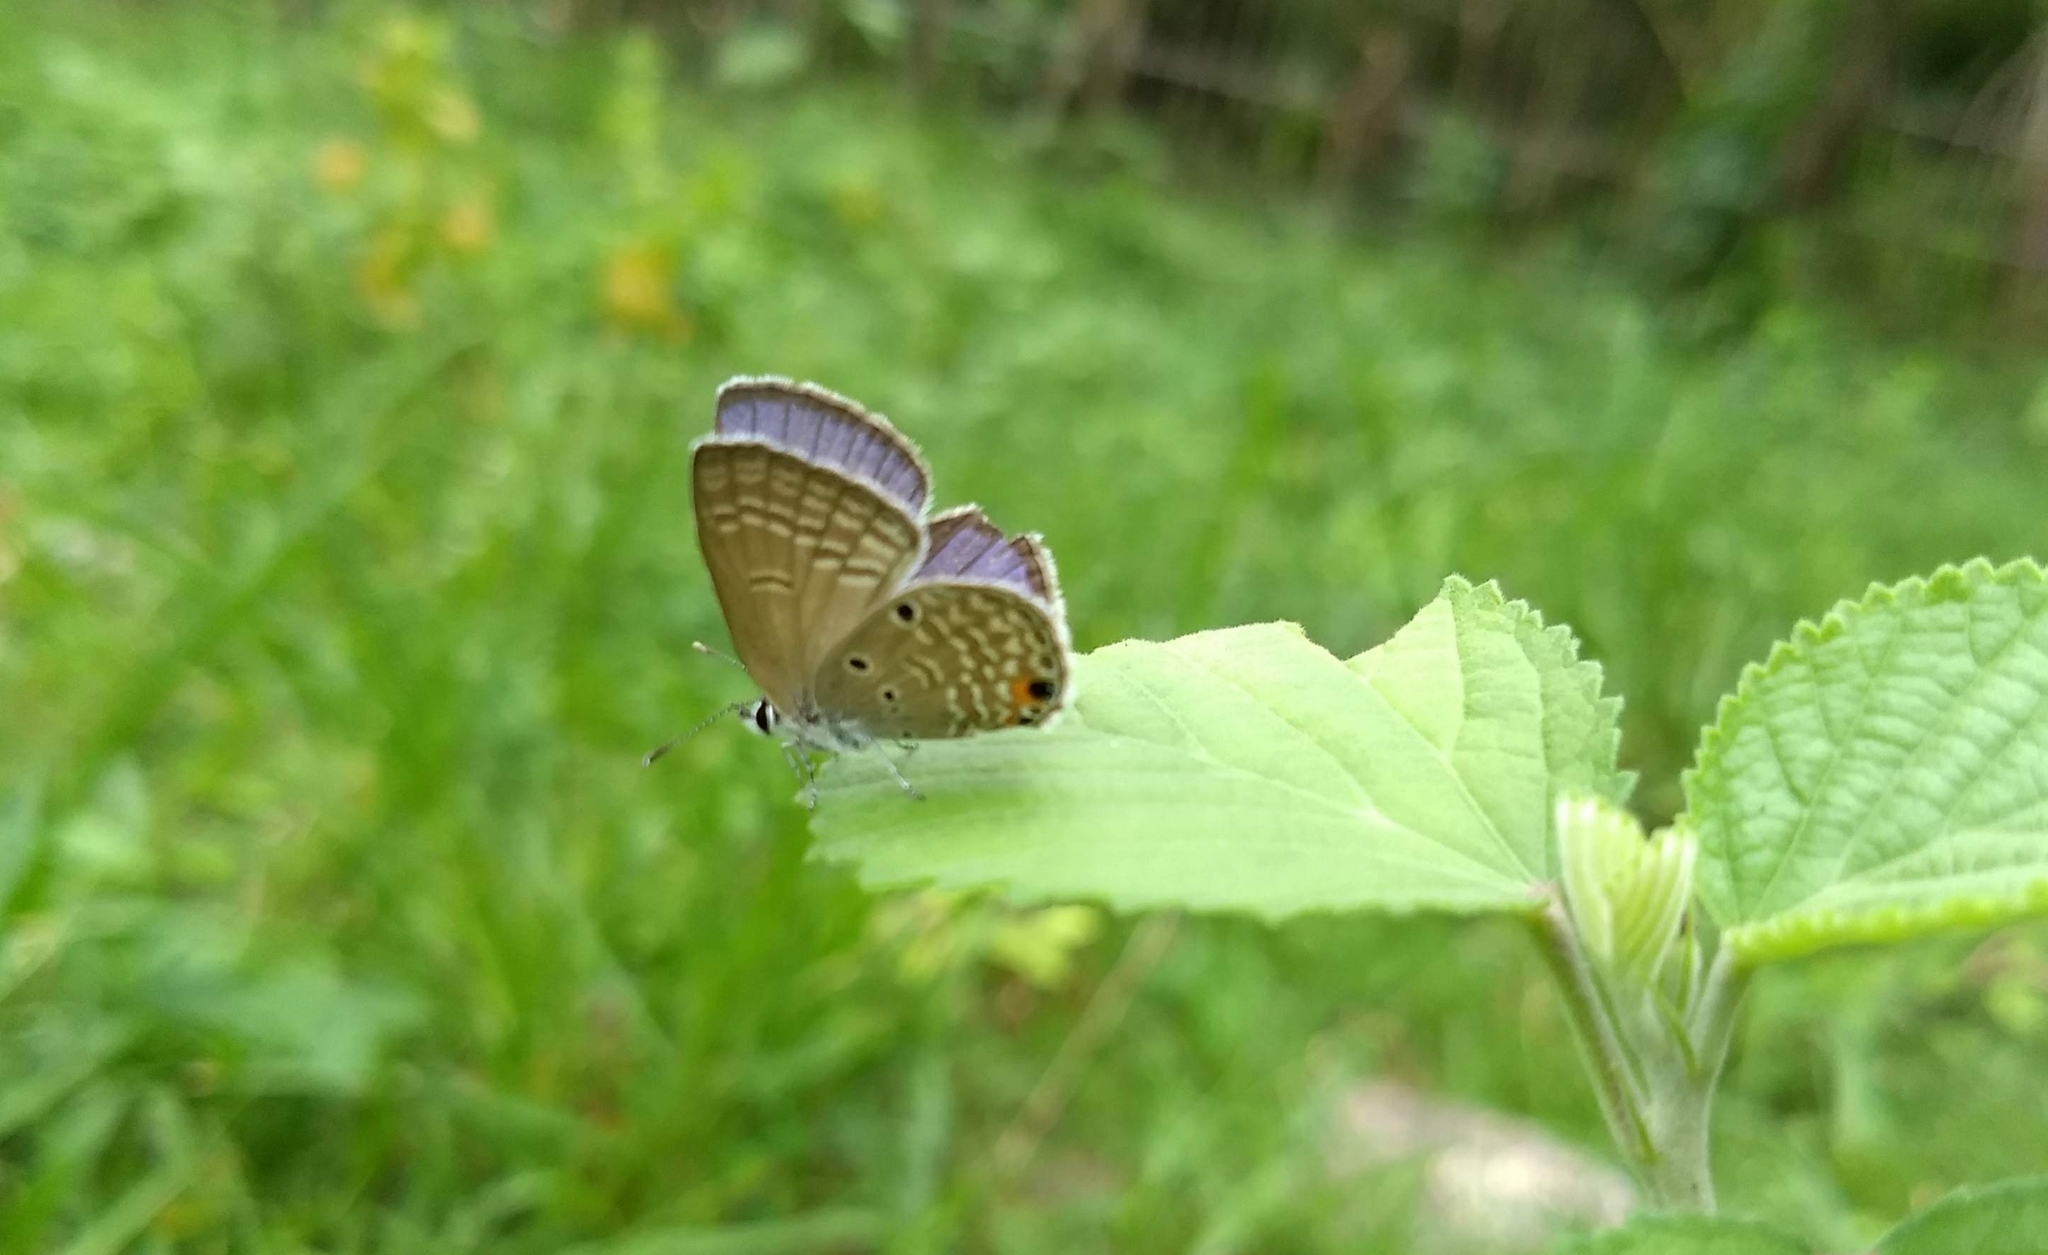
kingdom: Animalia
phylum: Arthropoda
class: Insecta
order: Lepidoptera
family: Lycaenidae
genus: Luthrodes
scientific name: Luthrodes pandava
